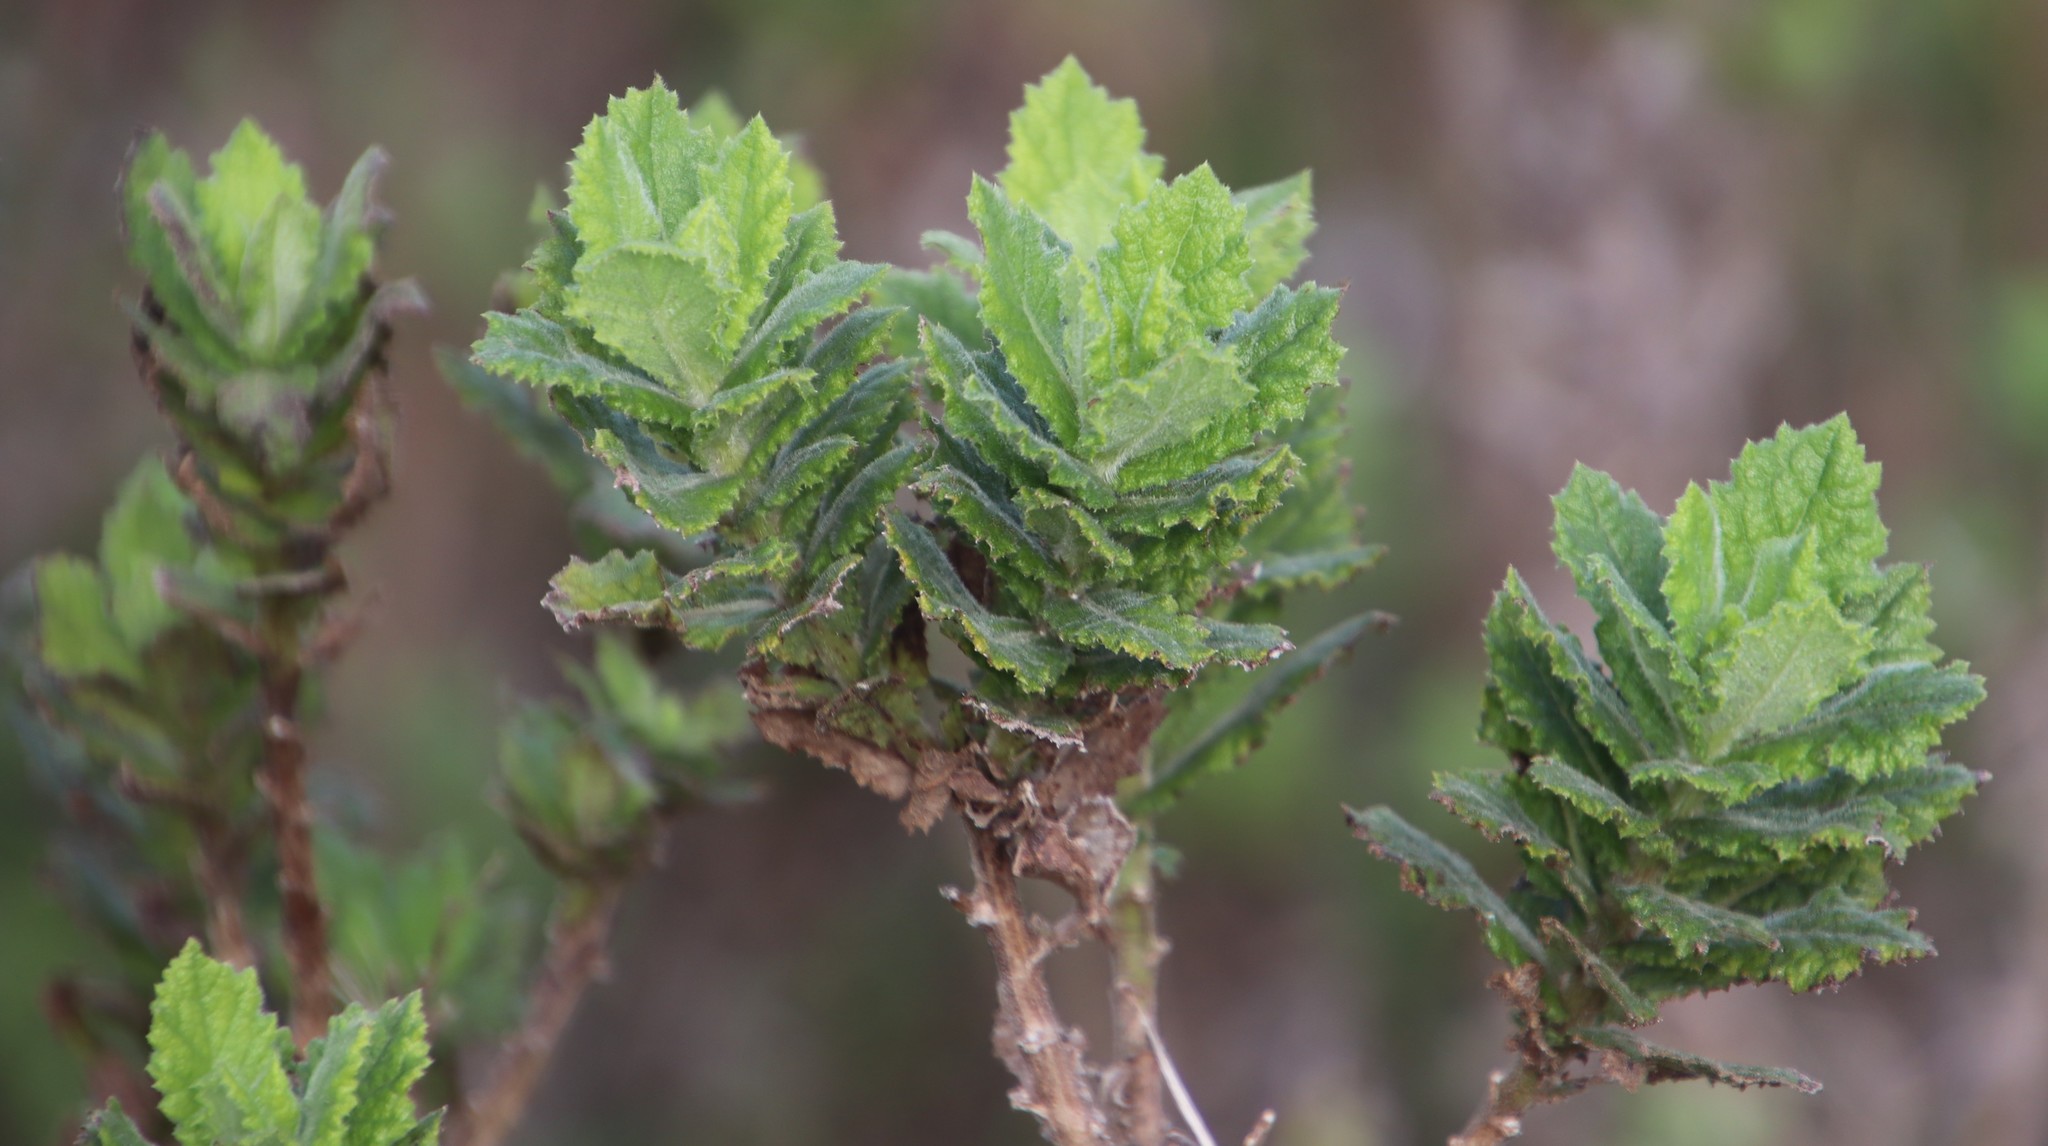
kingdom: Plantae
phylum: Tracheophyta
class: Magnoliopsida
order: Asterales
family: Asteraceae
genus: Senecio
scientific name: Senecio rigidus
